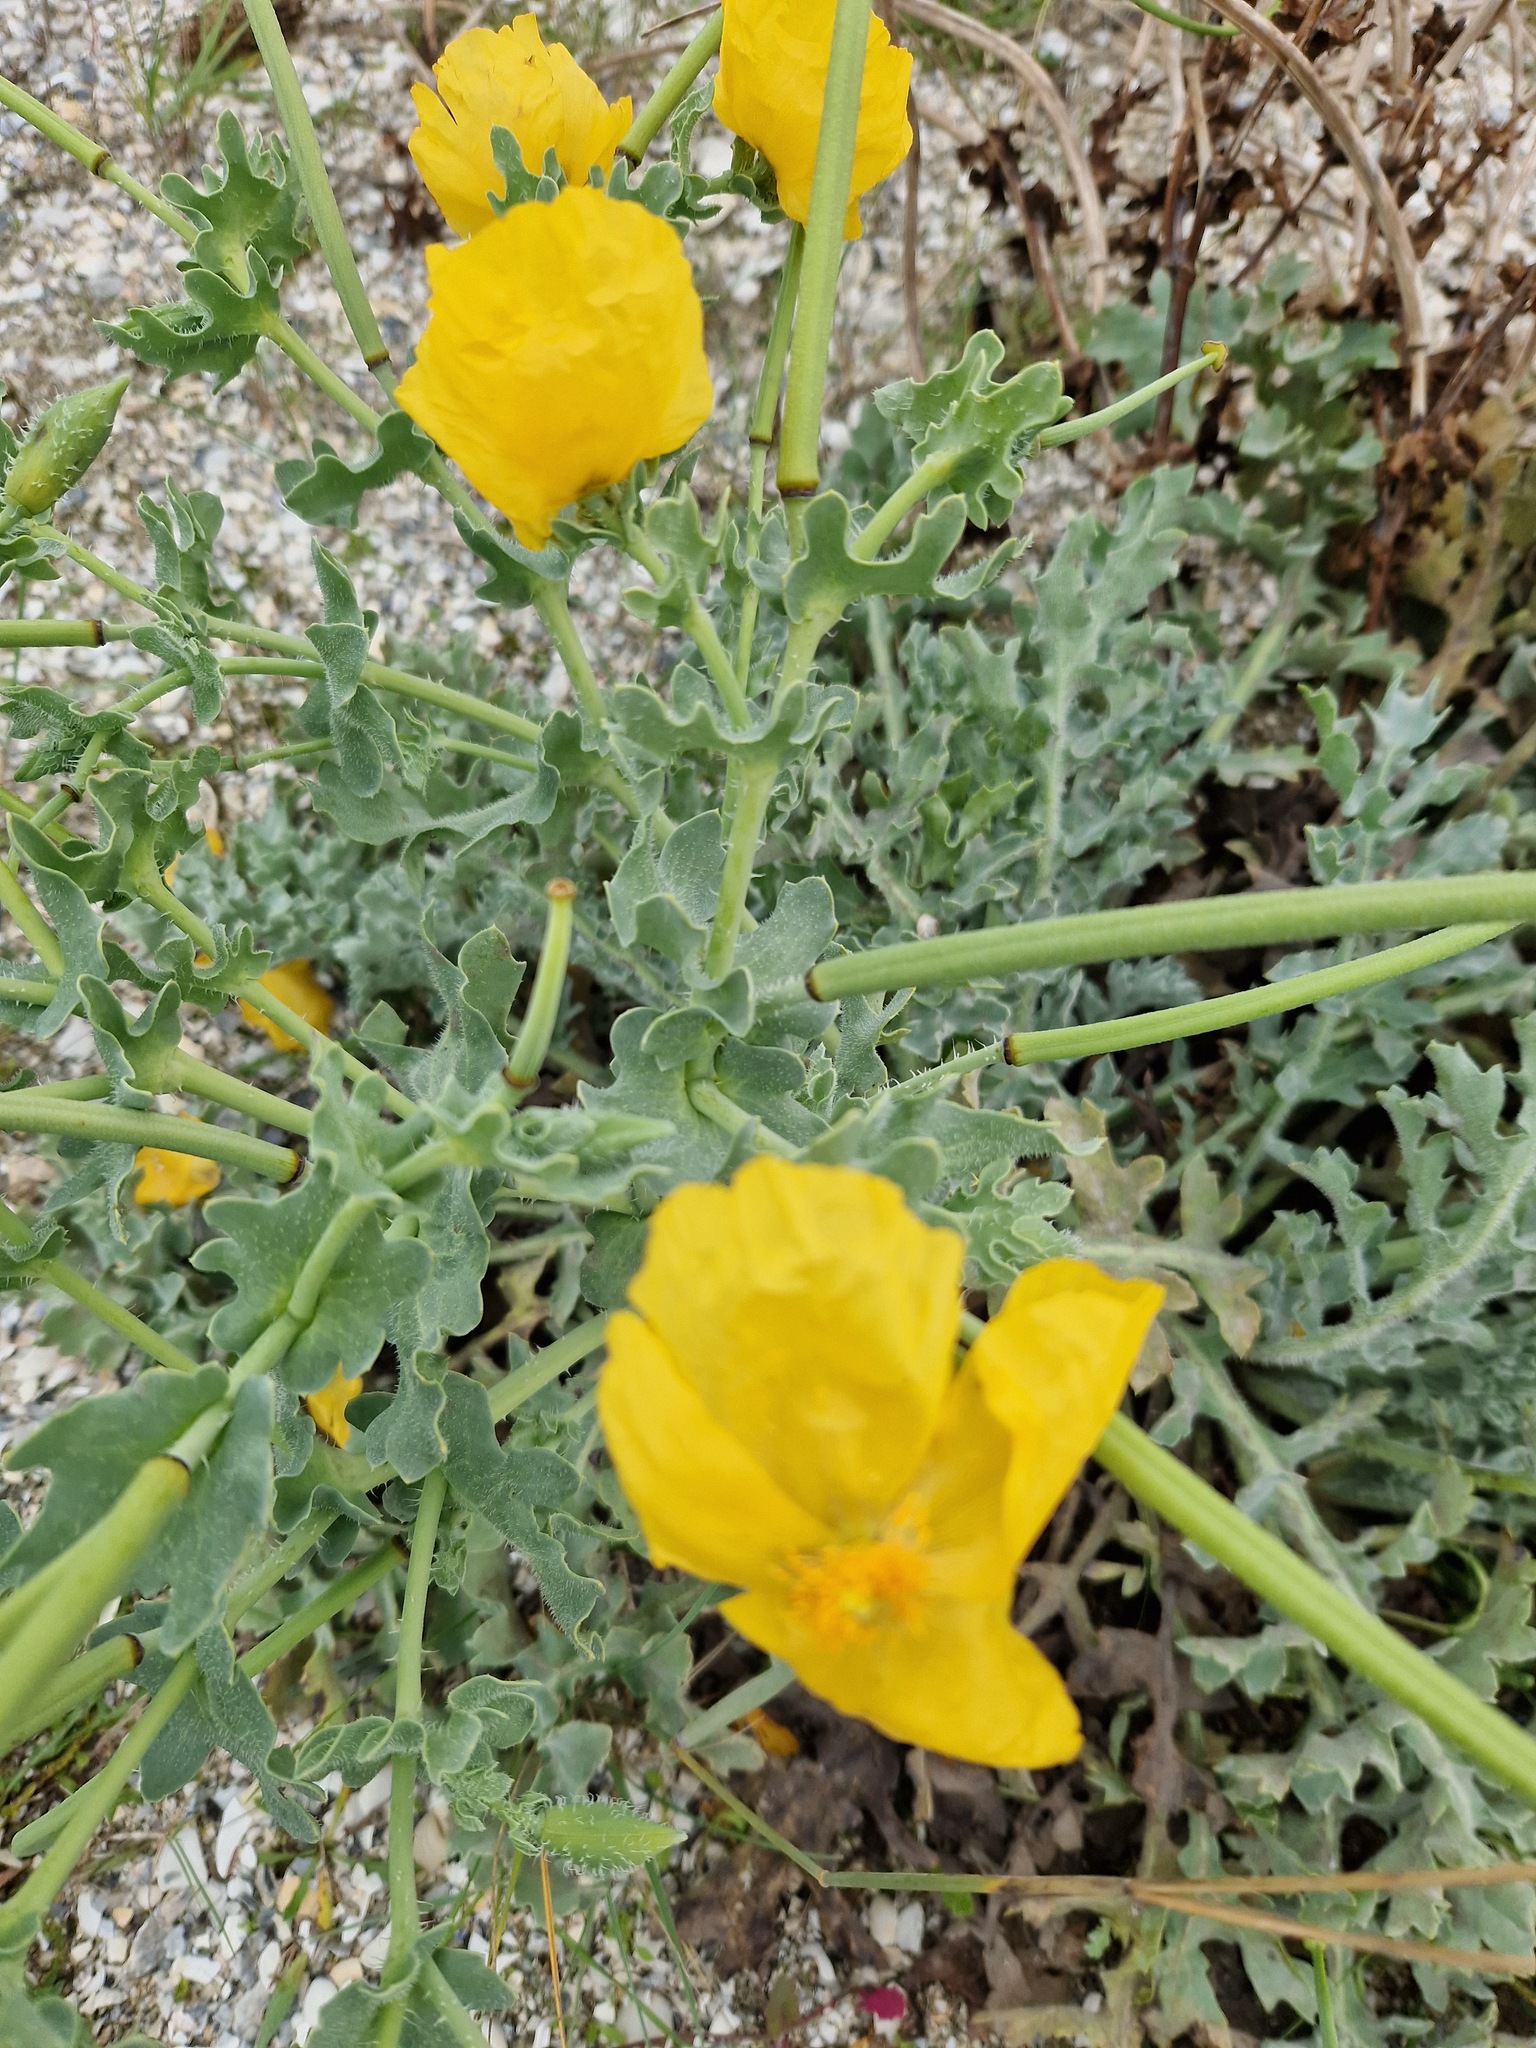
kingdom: Plantae
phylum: Tracheophyta
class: Magnoliopsida
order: Ranunculales
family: Papaveraceae
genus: Glaucium
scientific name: Glaucium flavum
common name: Yellow horned-poppy
